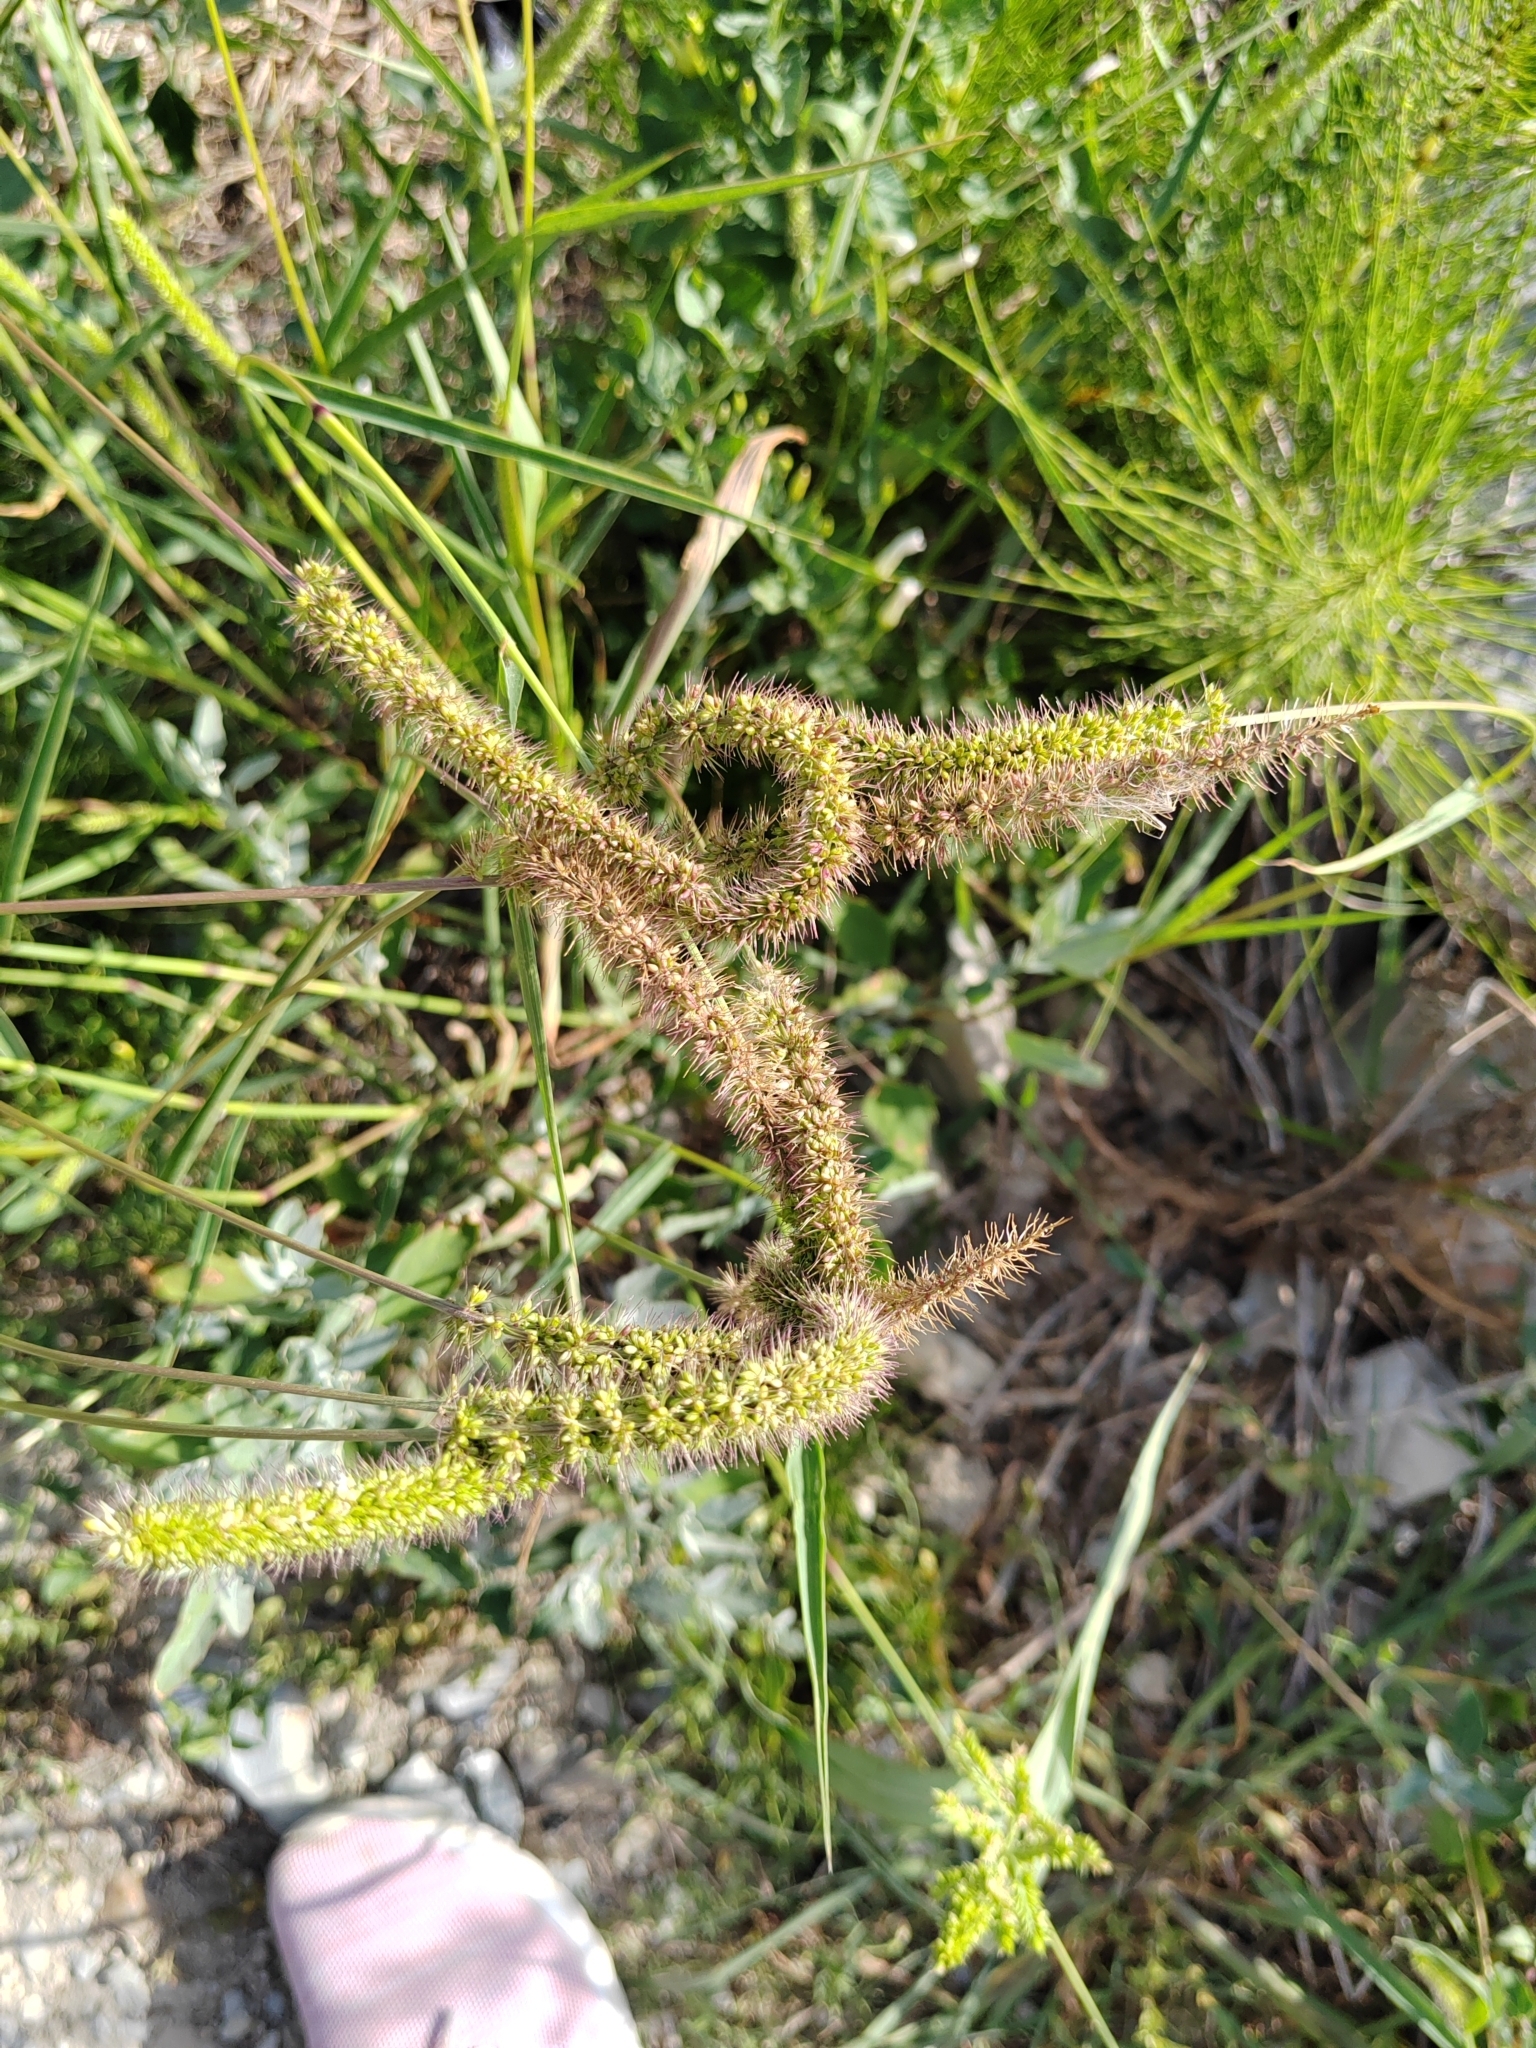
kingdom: Plantae
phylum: Tracheophyta
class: Liliopsida
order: Poales
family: Poaceae
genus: Setaria
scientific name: Setaria verticillata
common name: Hooked bristlegrass
